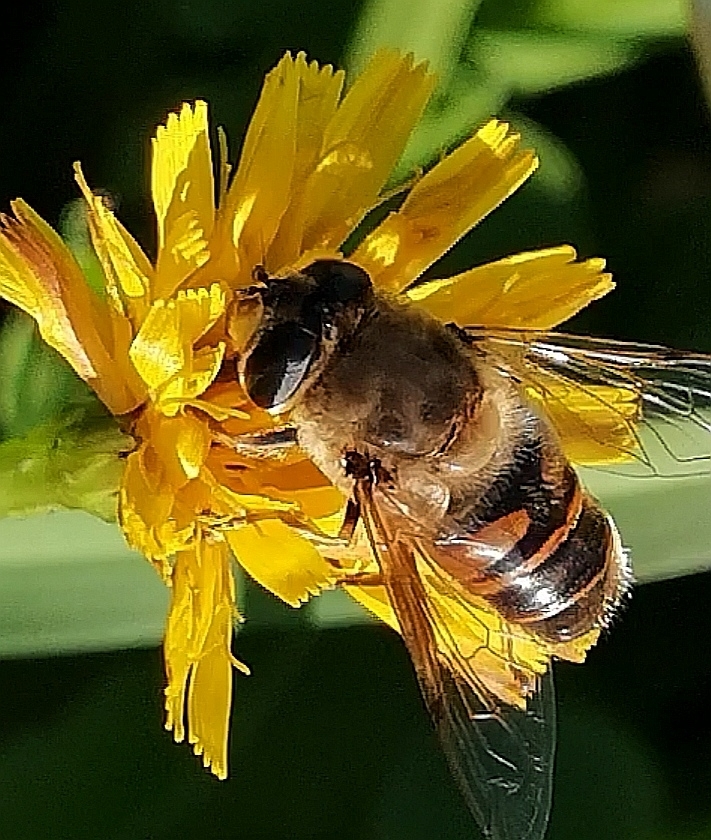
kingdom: Animalia
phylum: Arthropoda
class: Insecta
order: Diptera
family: Syrphidae
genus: Eristalis
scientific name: Eristalis tenax
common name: Drone fly
